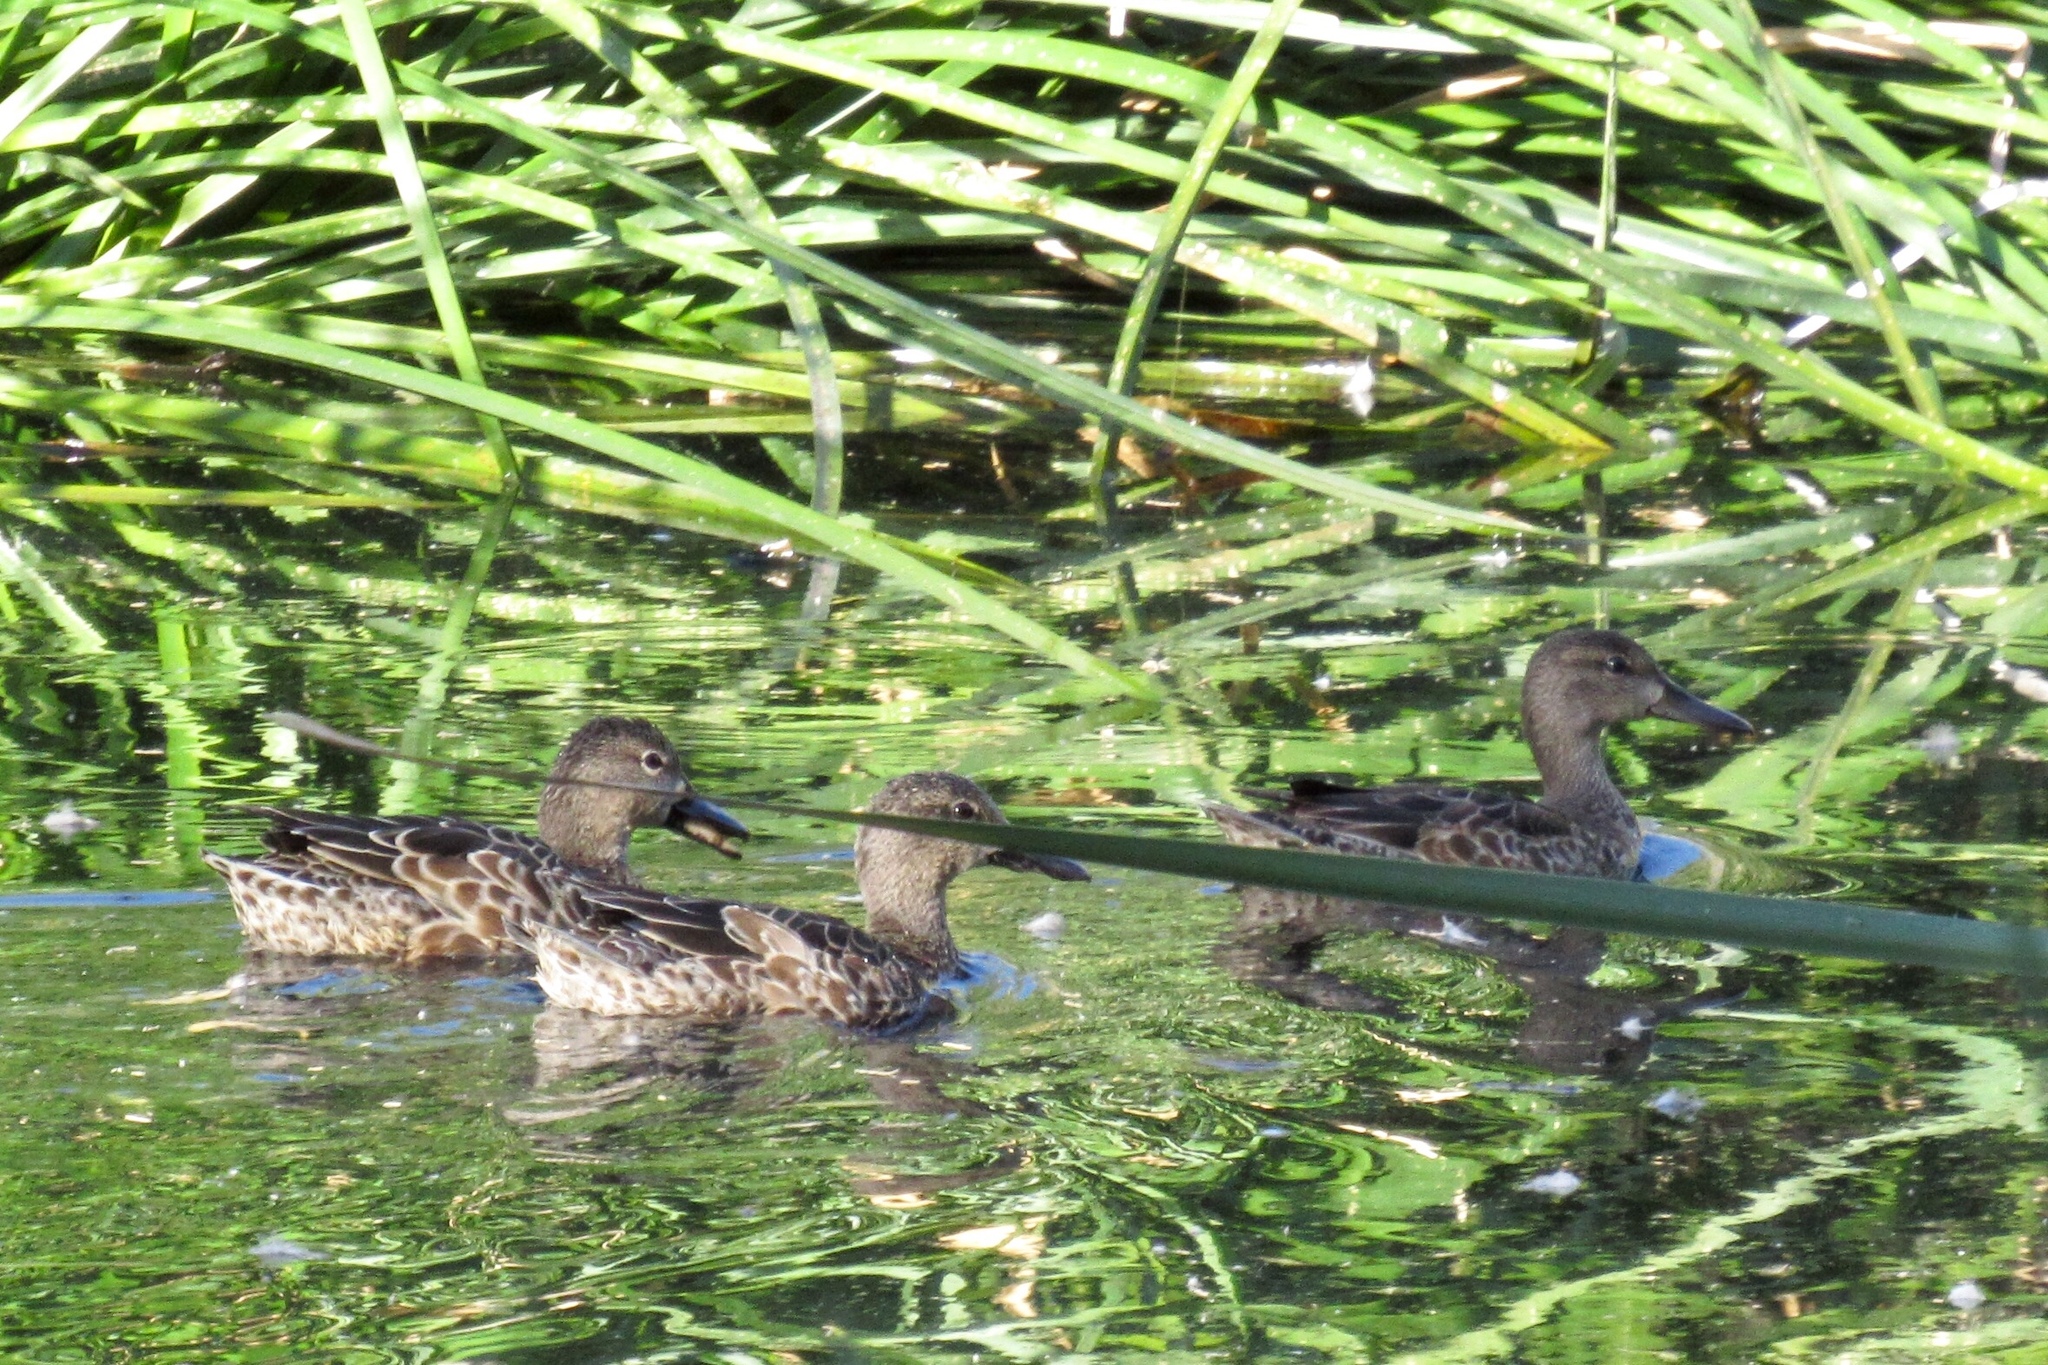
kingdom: Animalia
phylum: Chordata
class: Aves
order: Anseriformes
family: Anatidae
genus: Spatula
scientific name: Spatula discors
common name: Blue-winged teal
